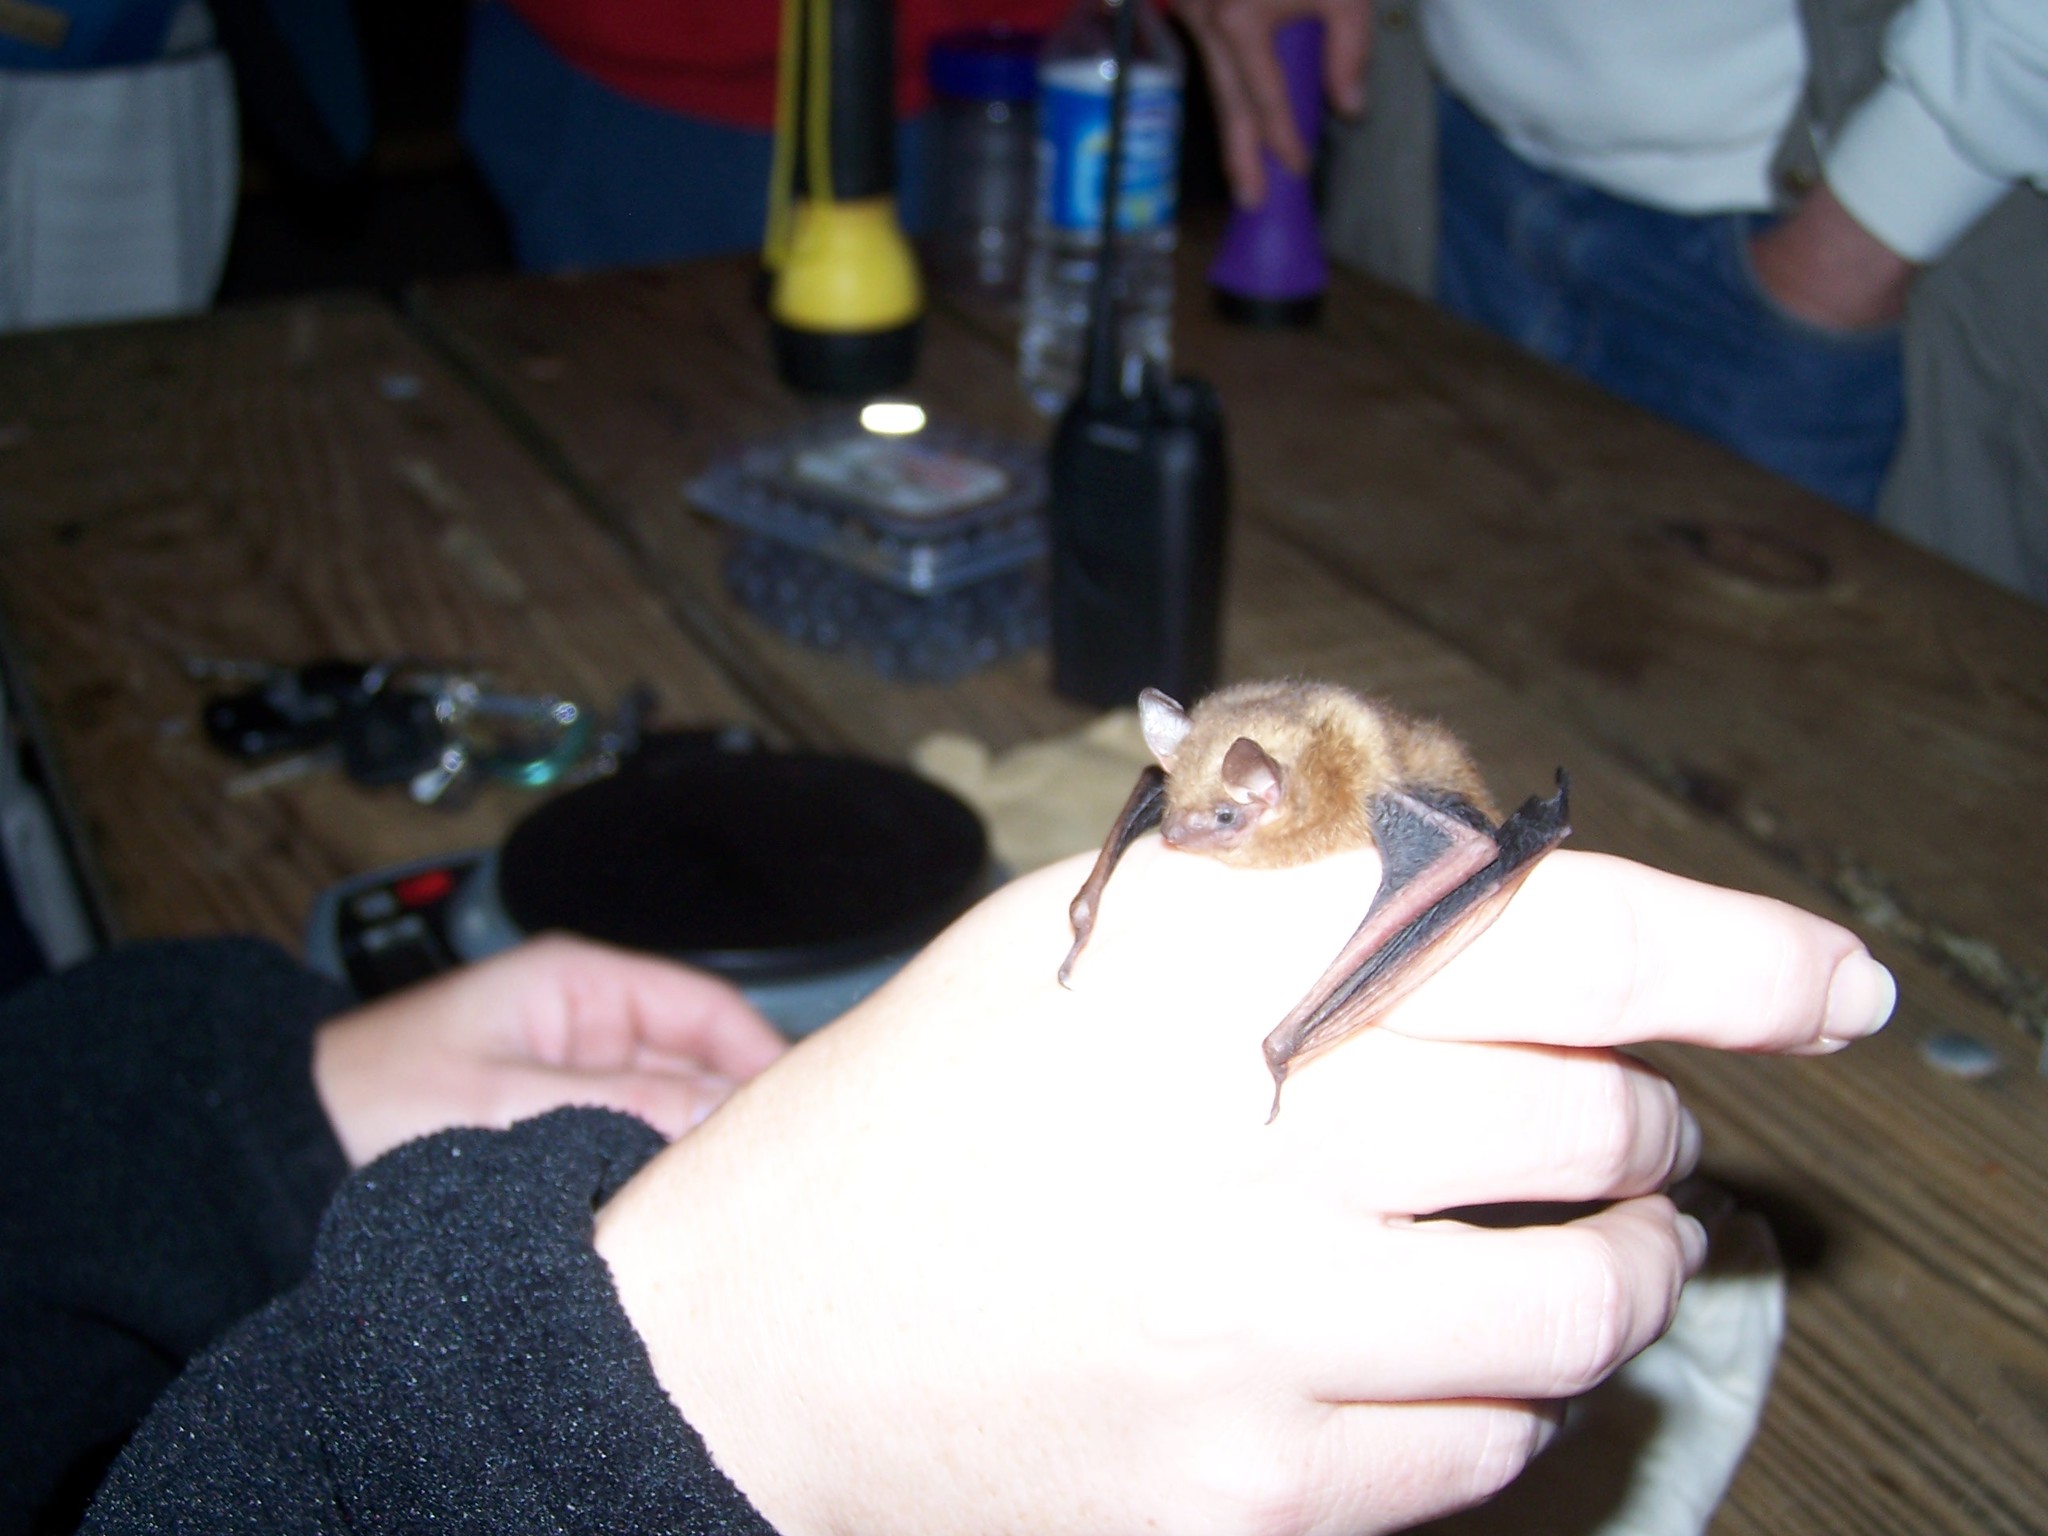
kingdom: Animalia
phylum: Chordata
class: Mammalia
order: Chiroptera
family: Vespertilionidae
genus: Perimyotis
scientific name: Perimyotis subflavus
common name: Eastern pipistrelle
